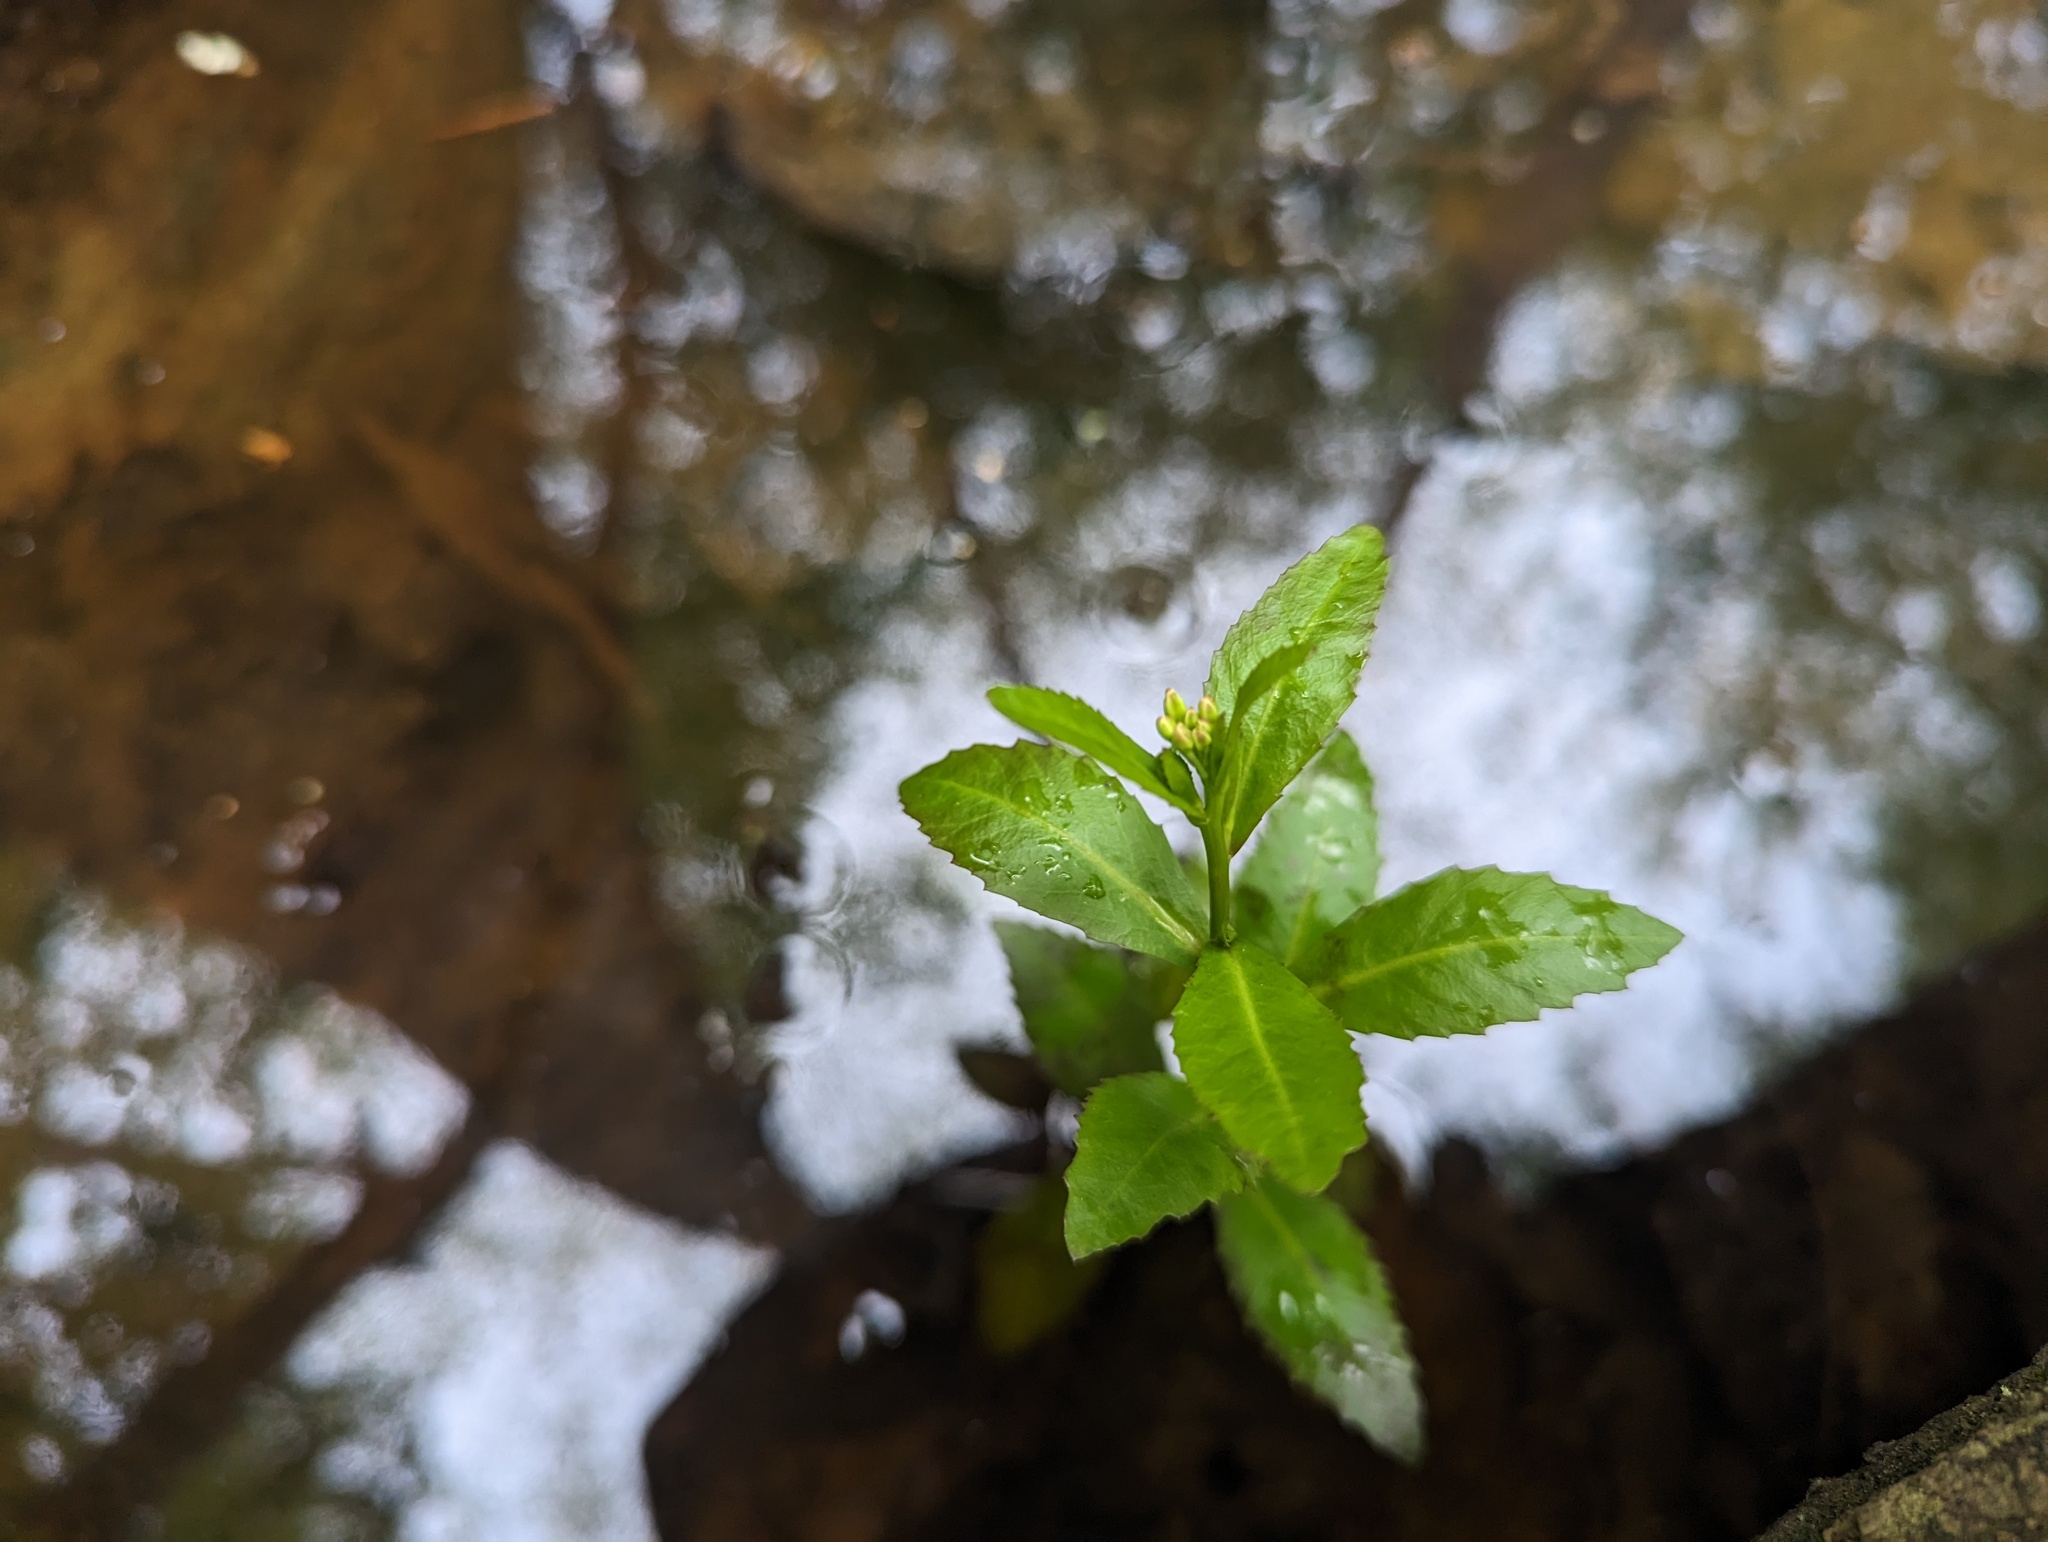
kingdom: Plantae
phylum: Tracheophyta
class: Magnoliopsida
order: Brassicales
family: Brassicaceae
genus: Rorippa
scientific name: Rorippa aquatica
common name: Lake watercress
